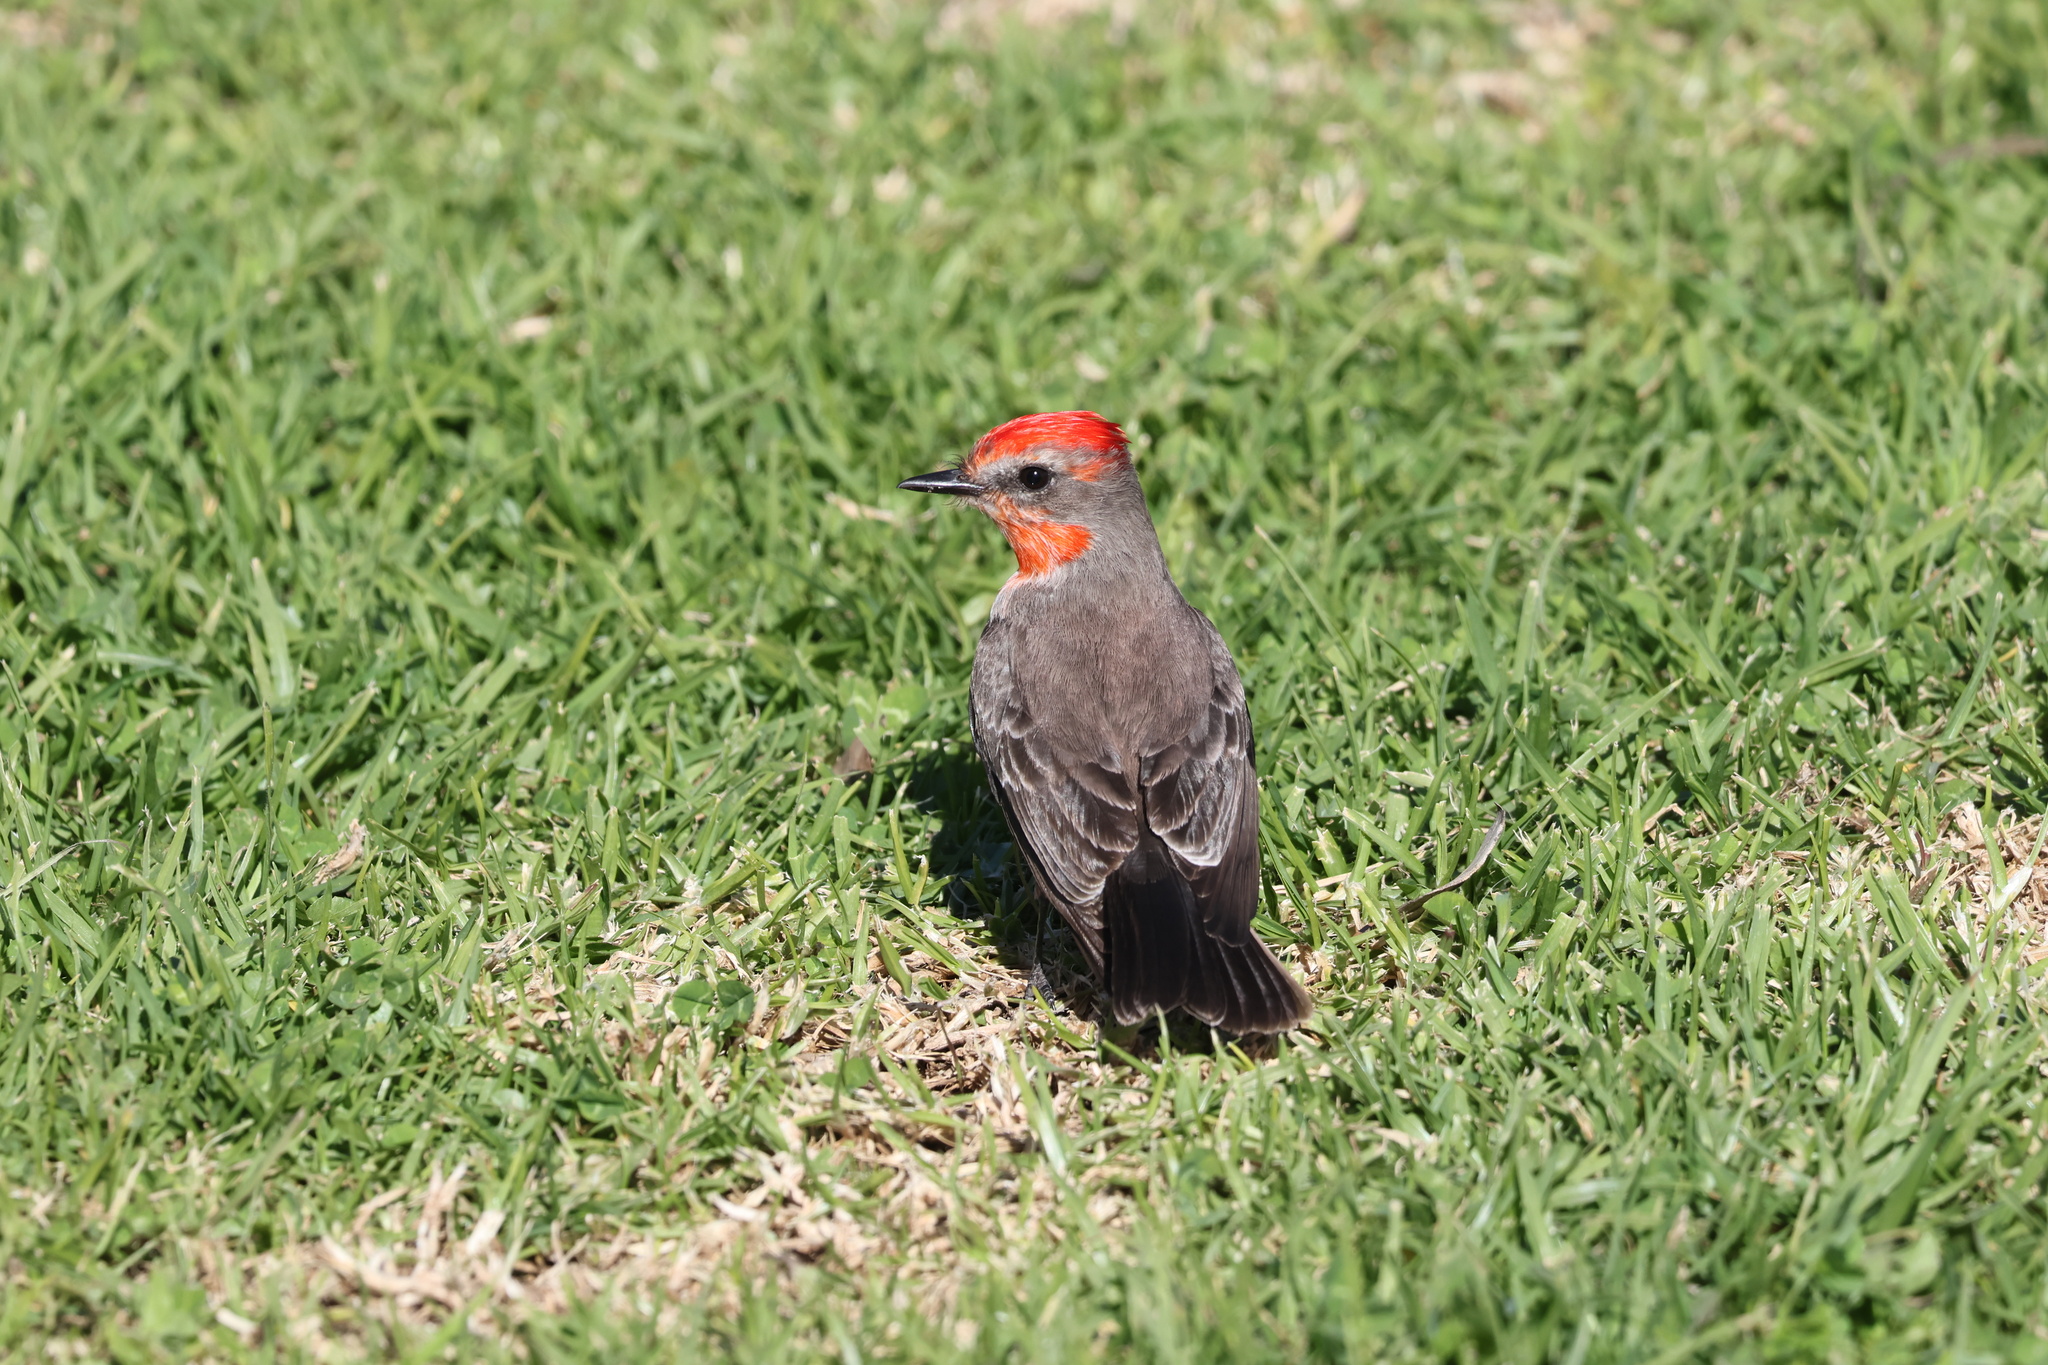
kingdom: Animalia
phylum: Chordata
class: Aves
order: Passeriformes
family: Tyrannidae
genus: Pyrocephalus
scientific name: Pyrocephalus rubinus
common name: Vermilion flycatcher
